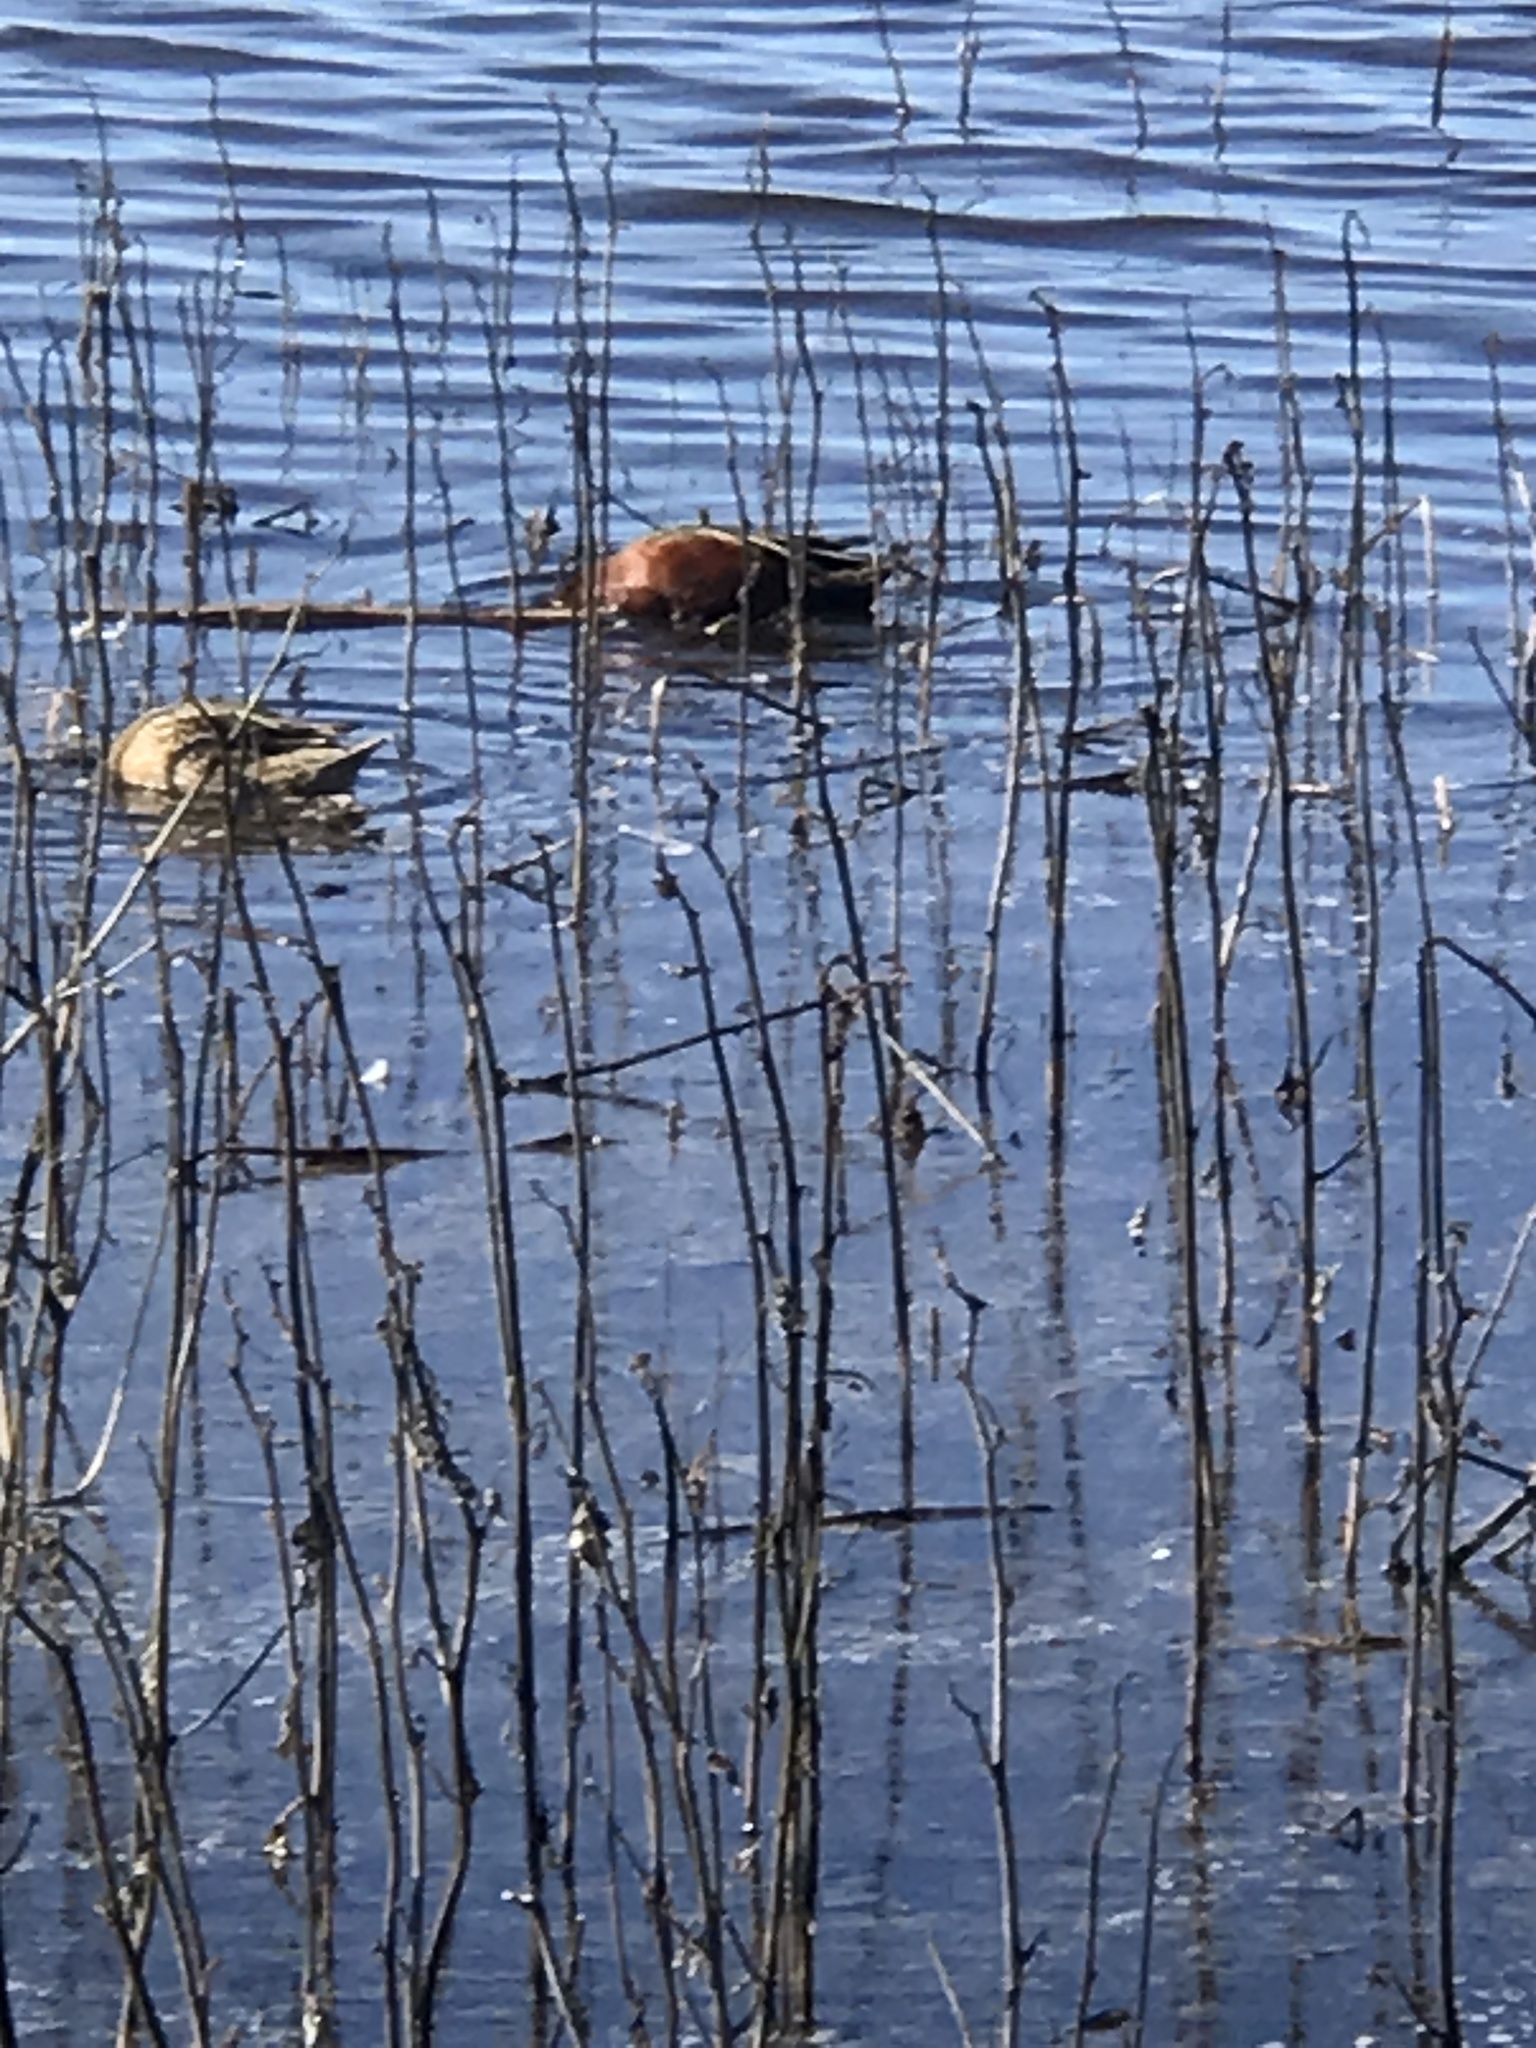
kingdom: Animalia
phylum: Chordata
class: Aves
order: Anseriformes
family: Anatidae
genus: Spatula
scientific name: Spatula cyanoptera
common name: Cinnamon teal
